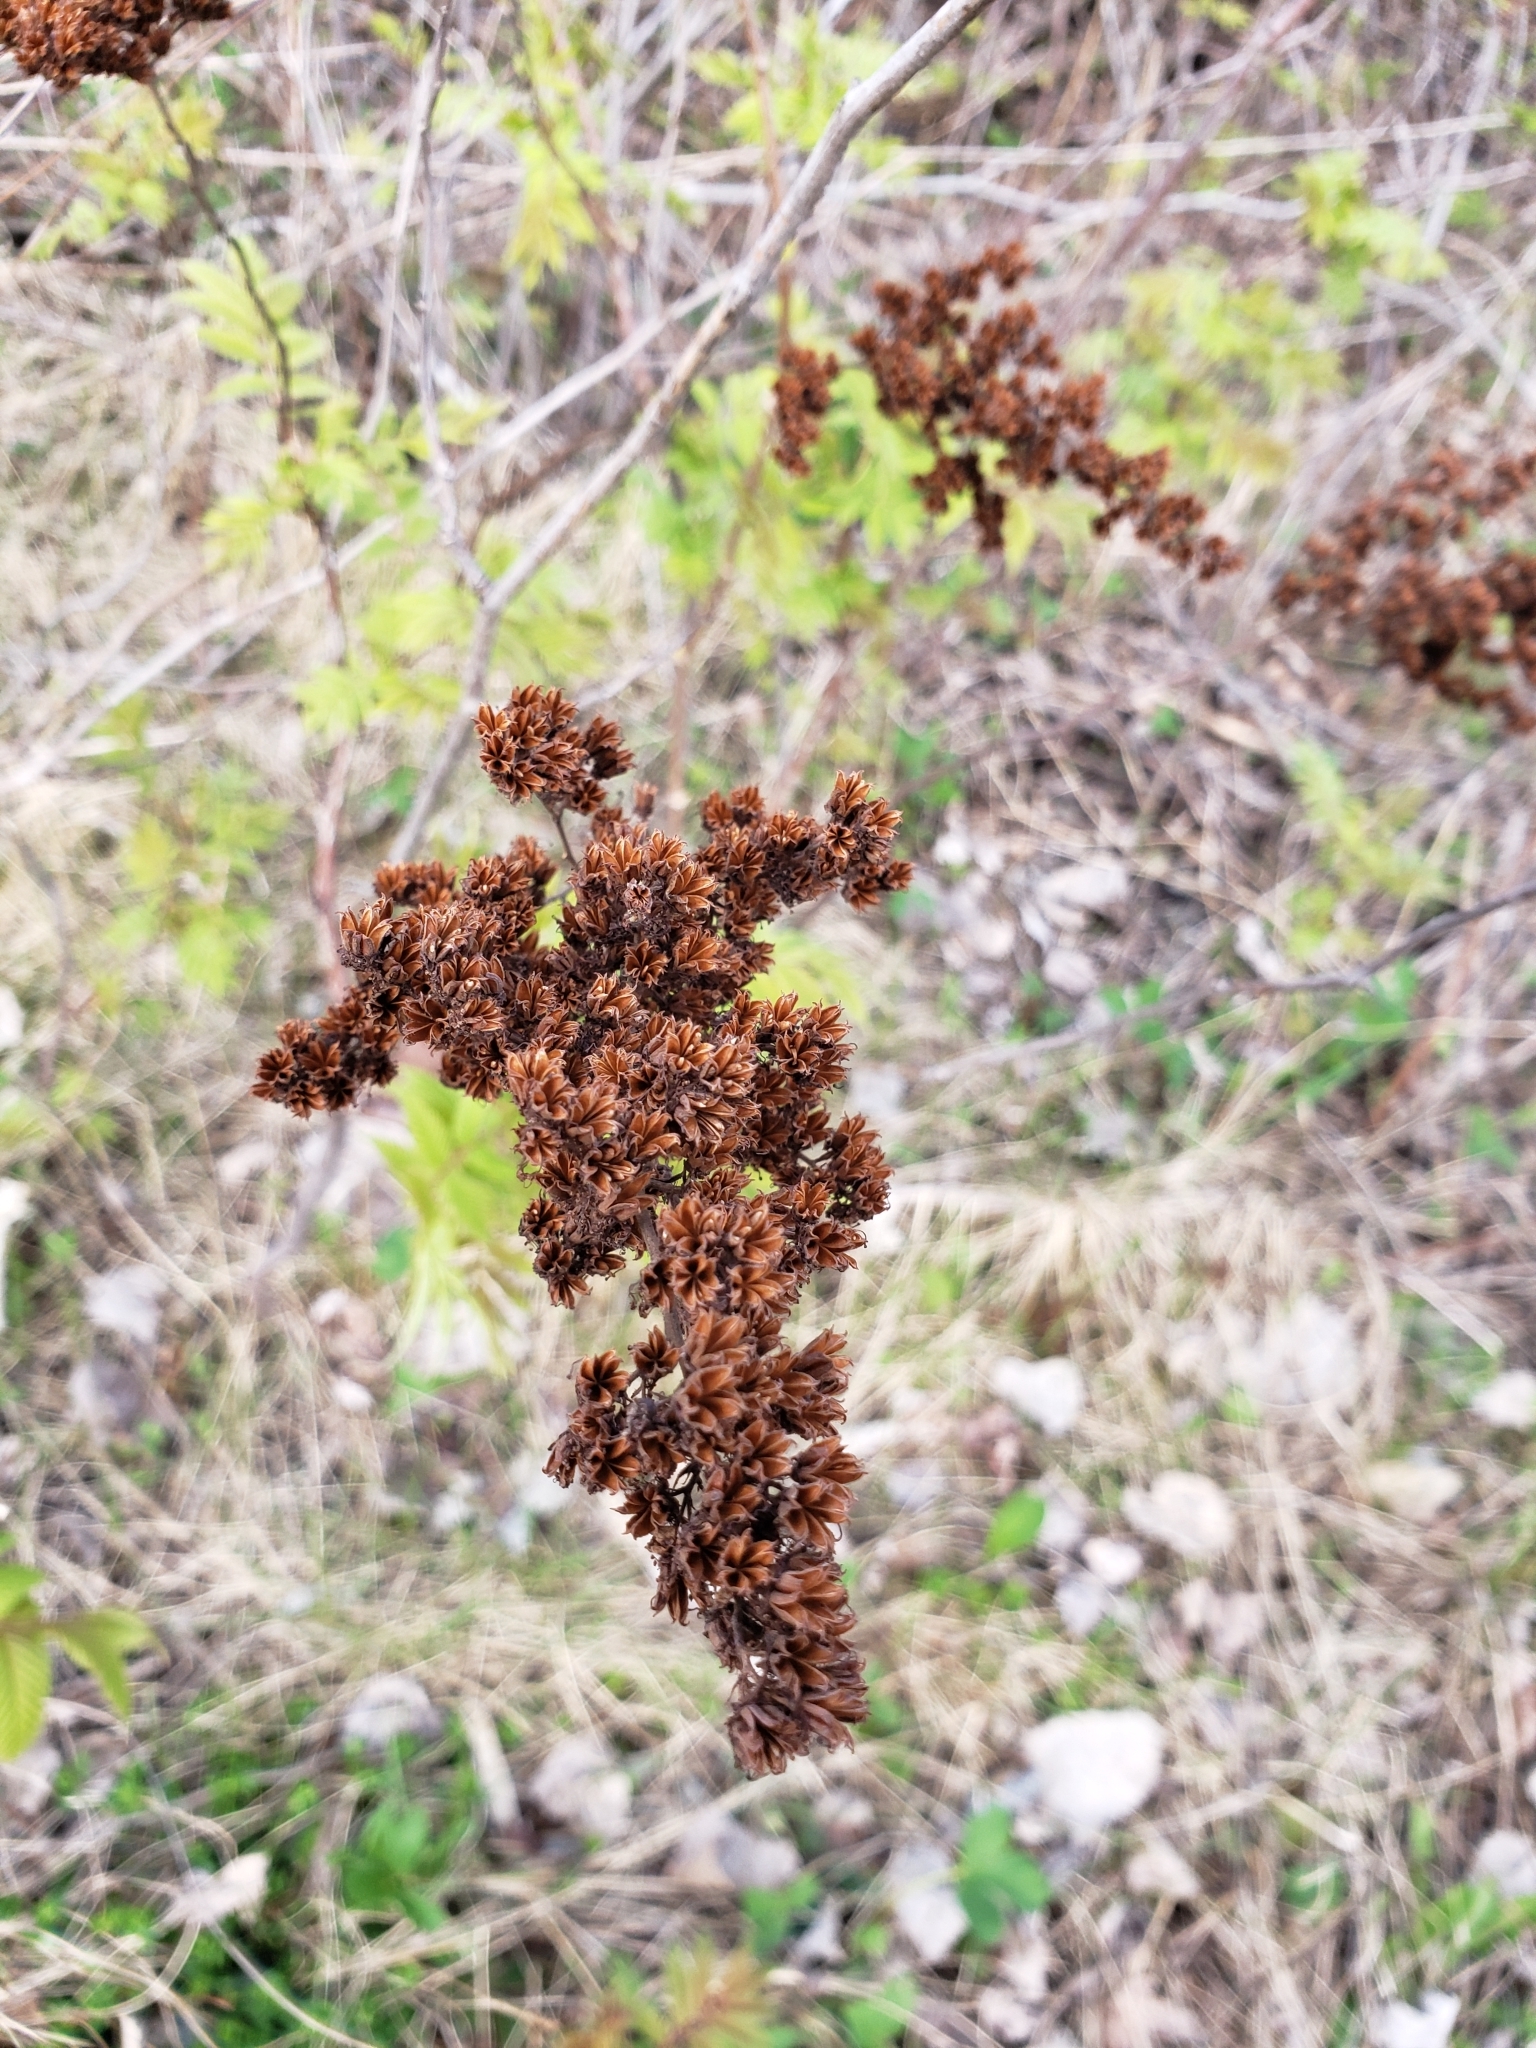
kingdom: Plantae
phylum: Tracheophyta
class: Magnoliopsida
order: Rosales
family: Rosaceae
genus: Sorbaria
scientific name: Sorbaria sorbifolia
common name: False spiraea
